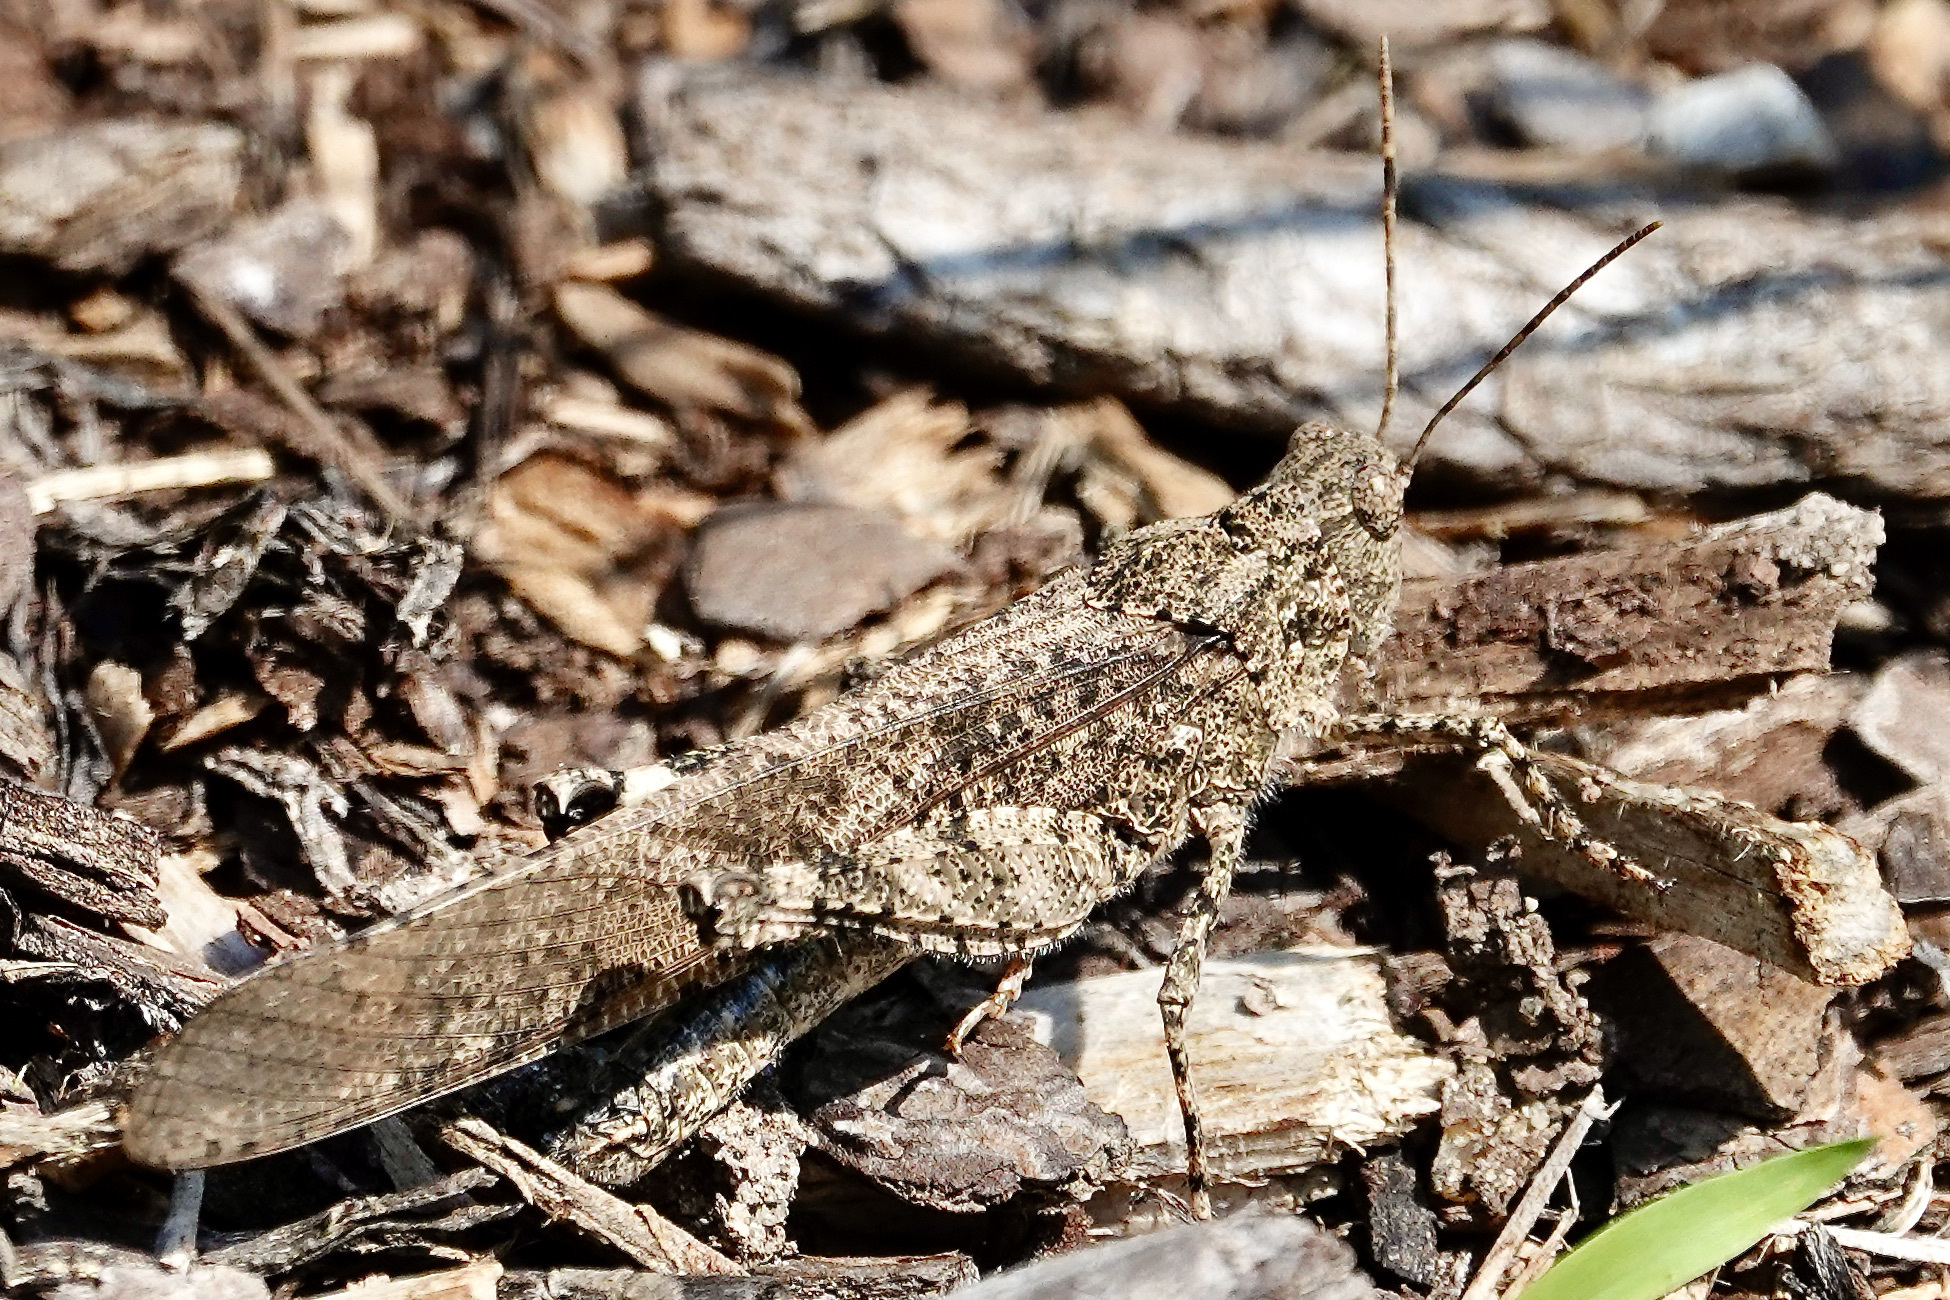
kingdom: Animalia
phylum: Arthropoda
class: Insecta
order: Orthoptera
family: Acrididae
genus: Dissosteira
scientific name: Dissosteira carolina
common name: Carolina grasshopper
